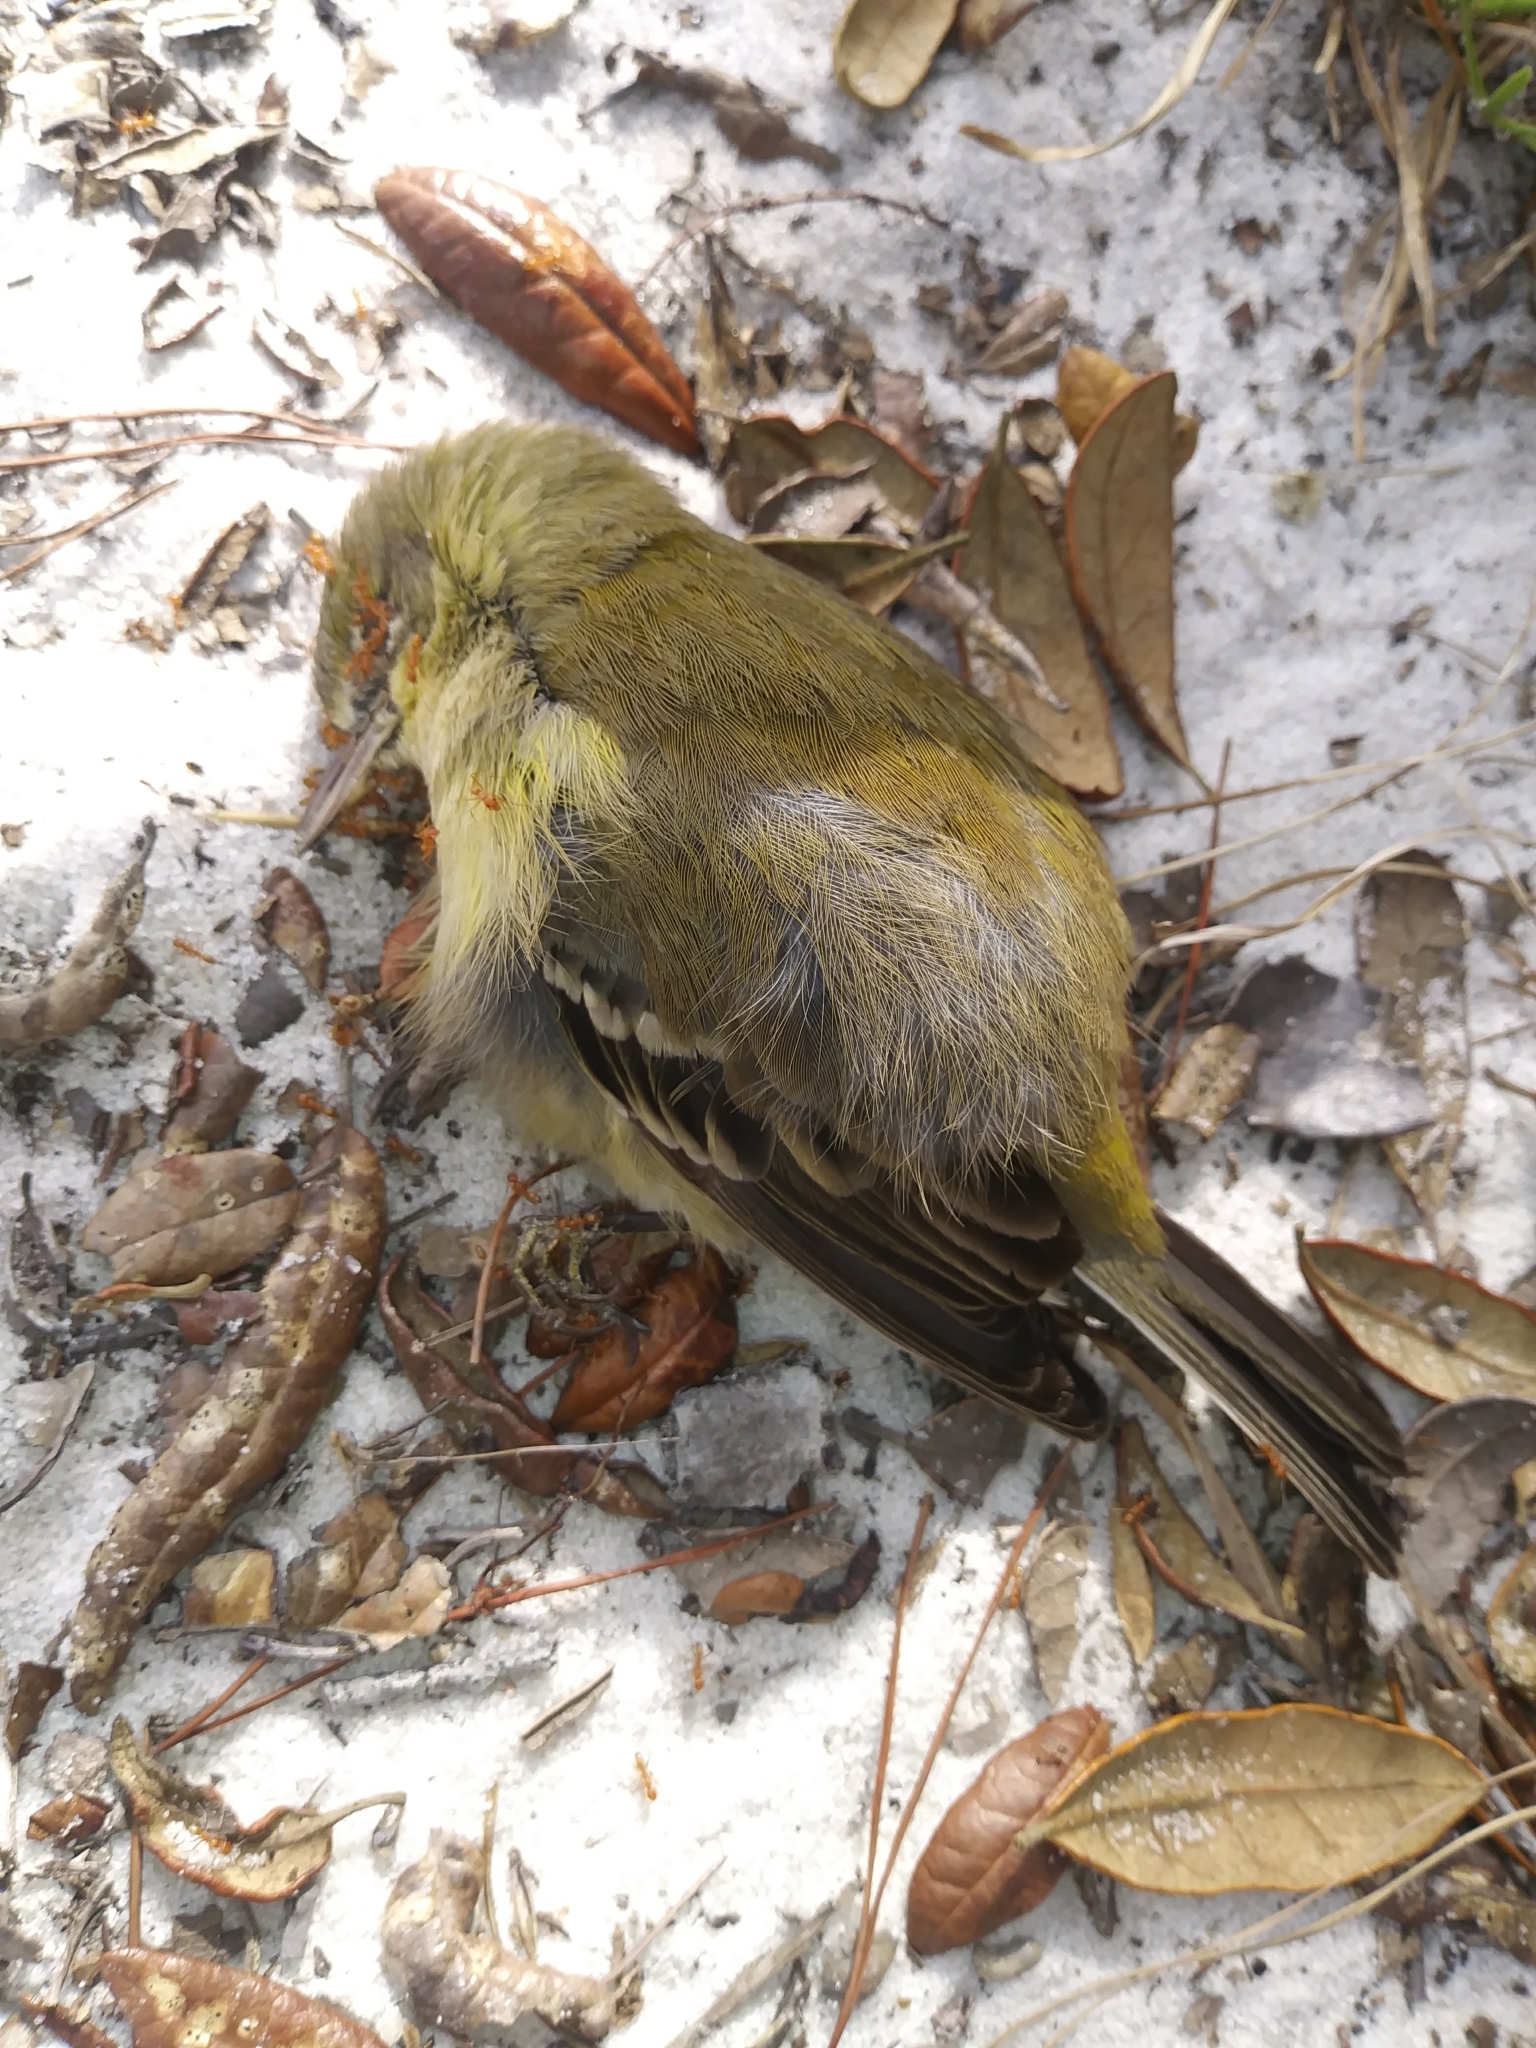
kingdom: Animalia
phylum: Chordata
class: Aves
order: Passeriformes
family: Parulidae
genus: Setophaga
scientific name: Setophaga pinus
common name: Pine warbler
